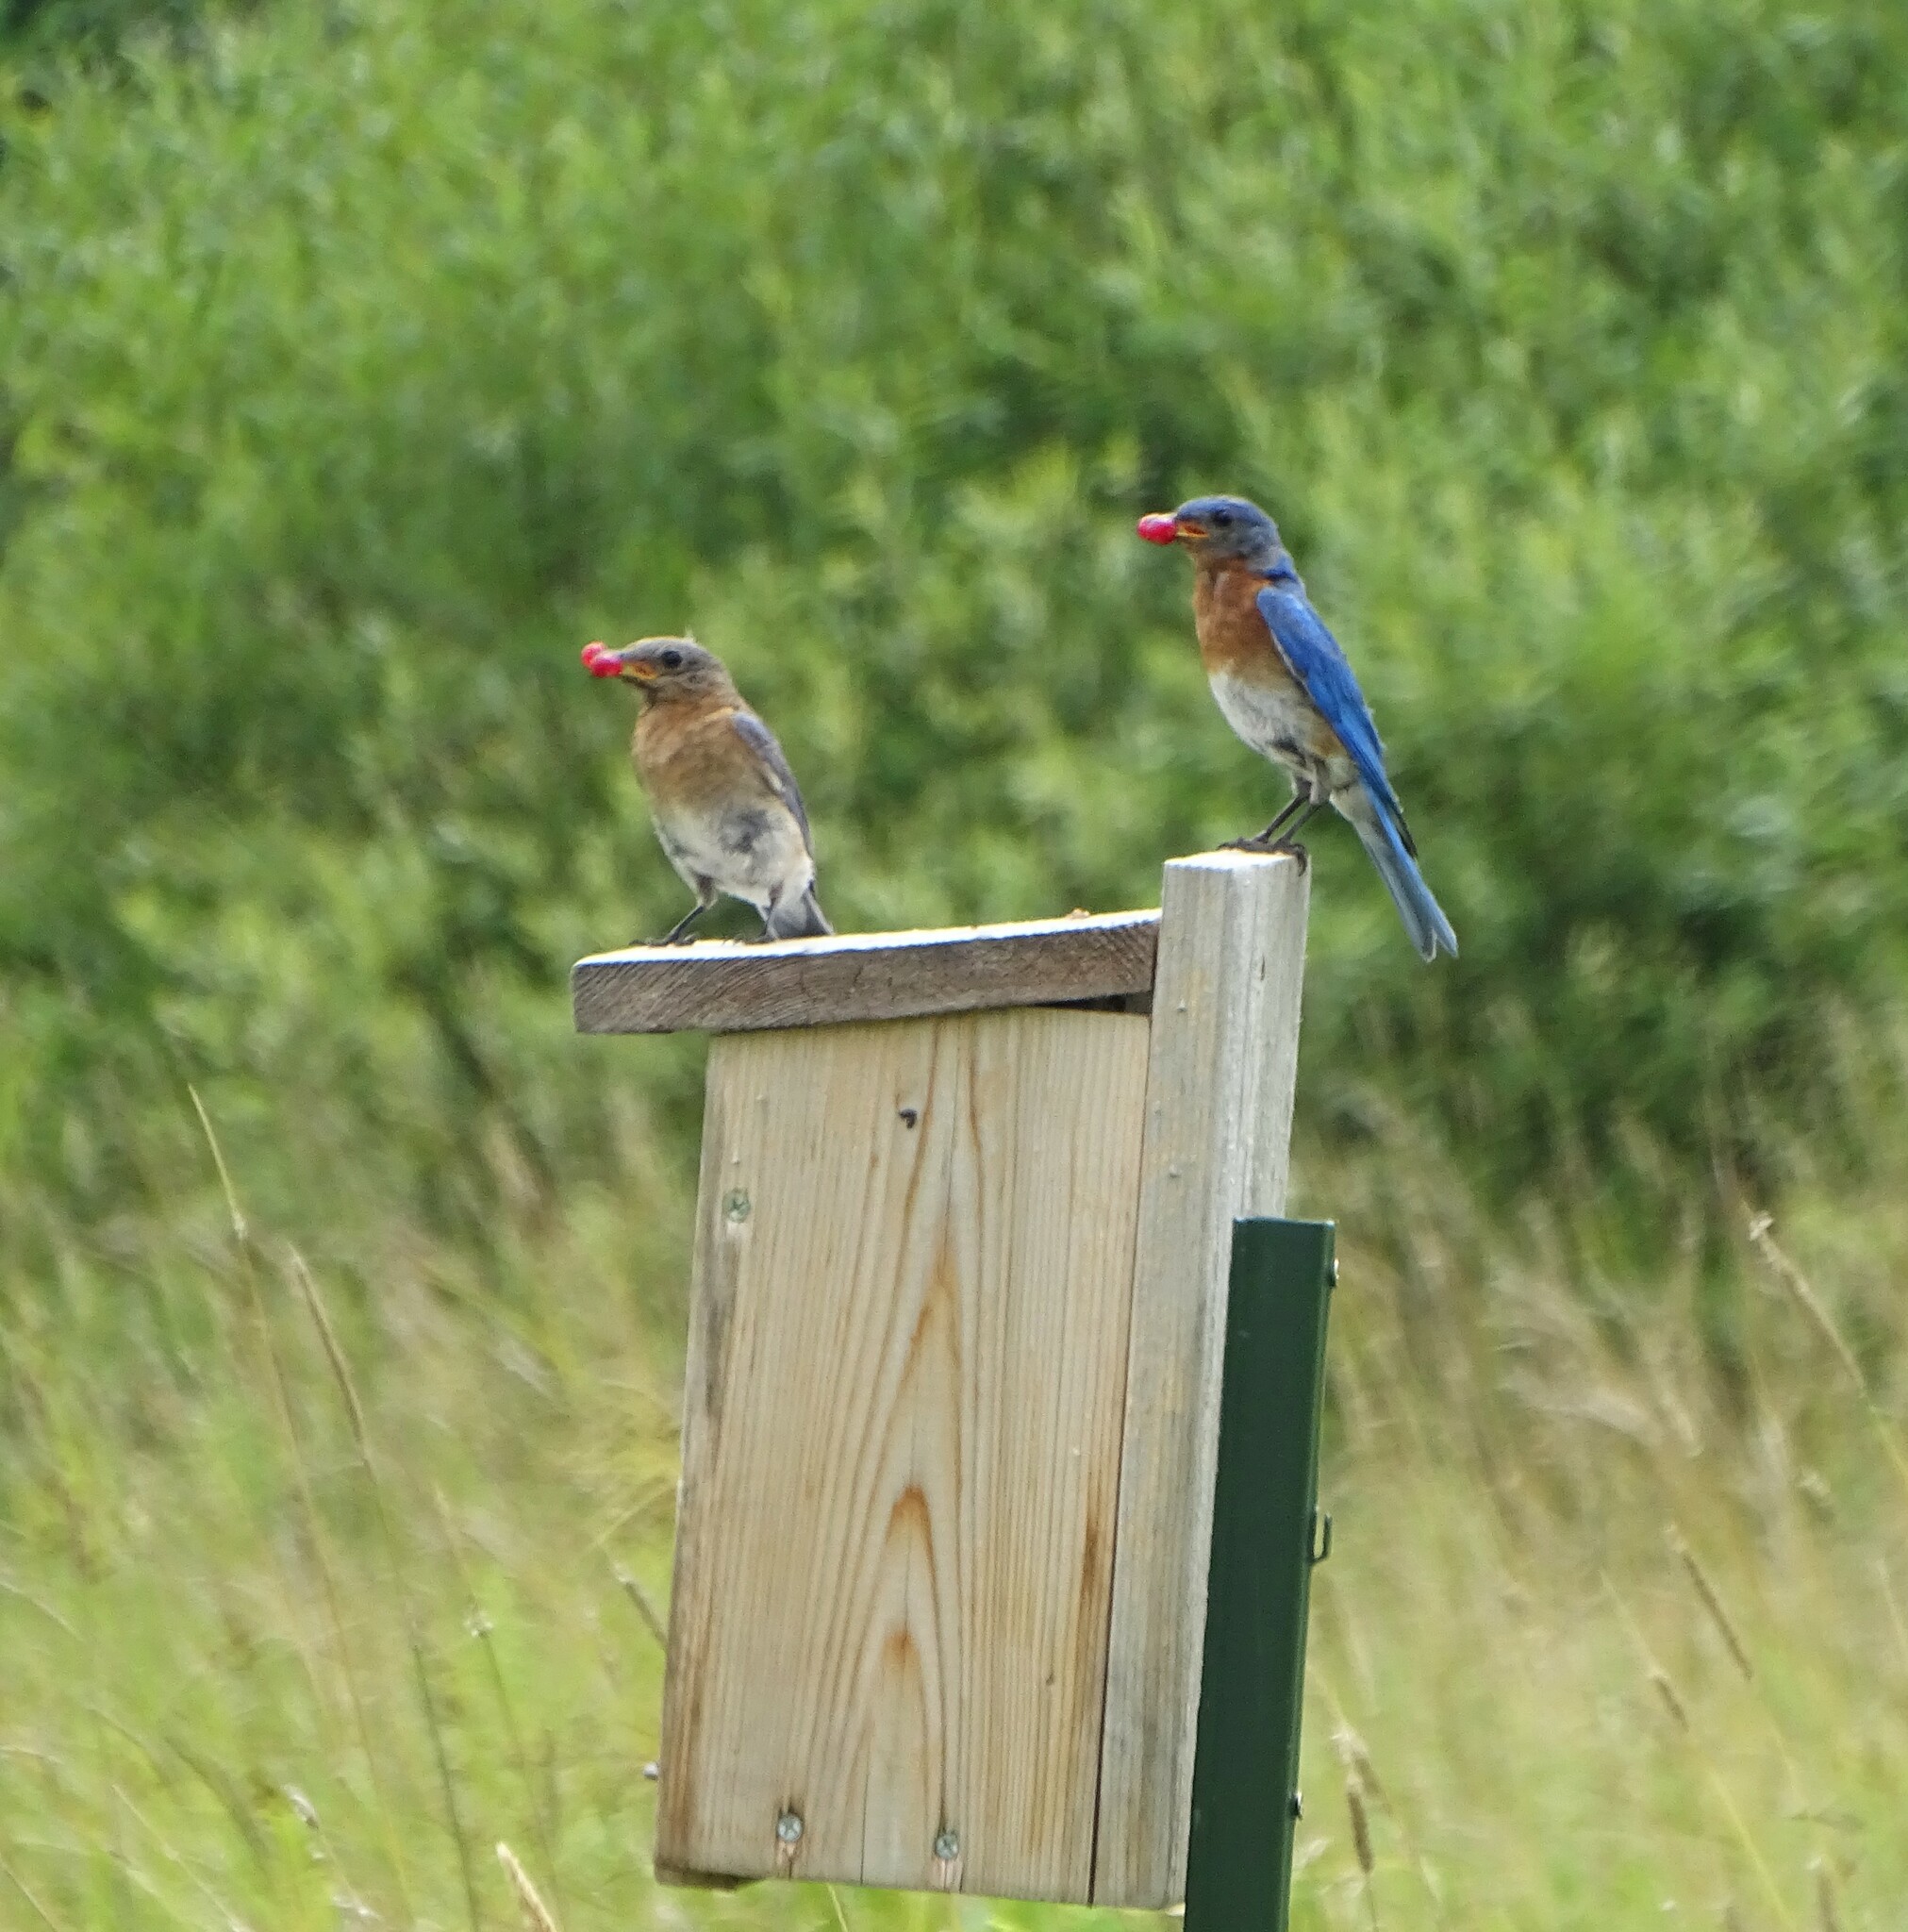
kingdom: Animalia
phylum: Chordata
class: Aves
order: Passeriformes
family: Turdidae
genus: Sialia
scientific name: Sialia sialis
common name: Eastern bluebird
